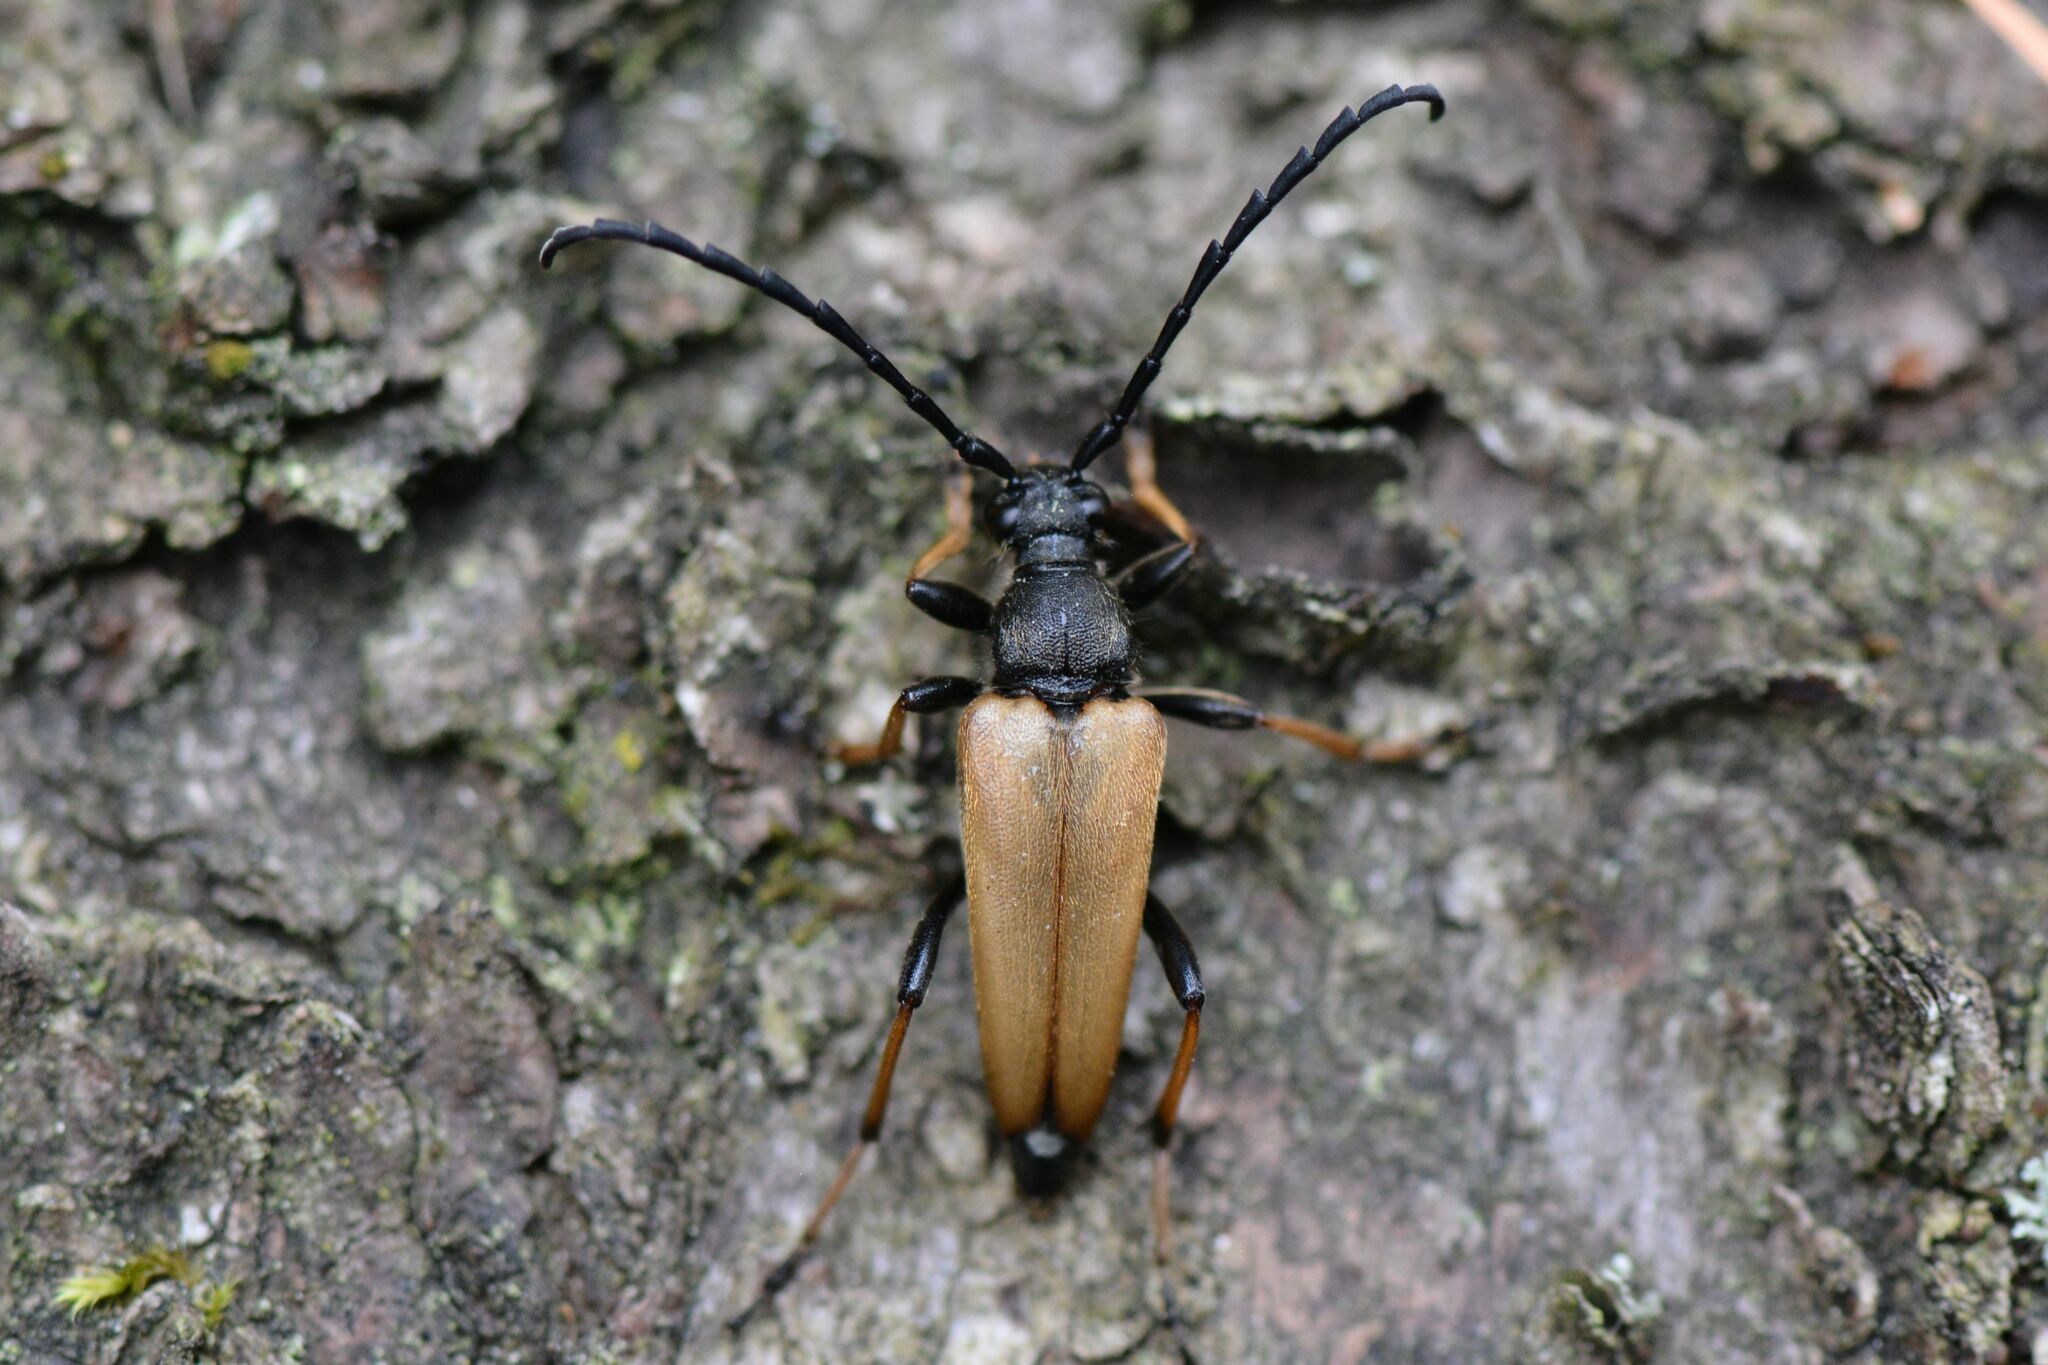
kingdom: Animalia
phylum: Arthropoda
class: Insecta
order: Coleoptera
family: Cerambycidae
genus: Stictoleptura
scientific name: Stictoleptura rubra
